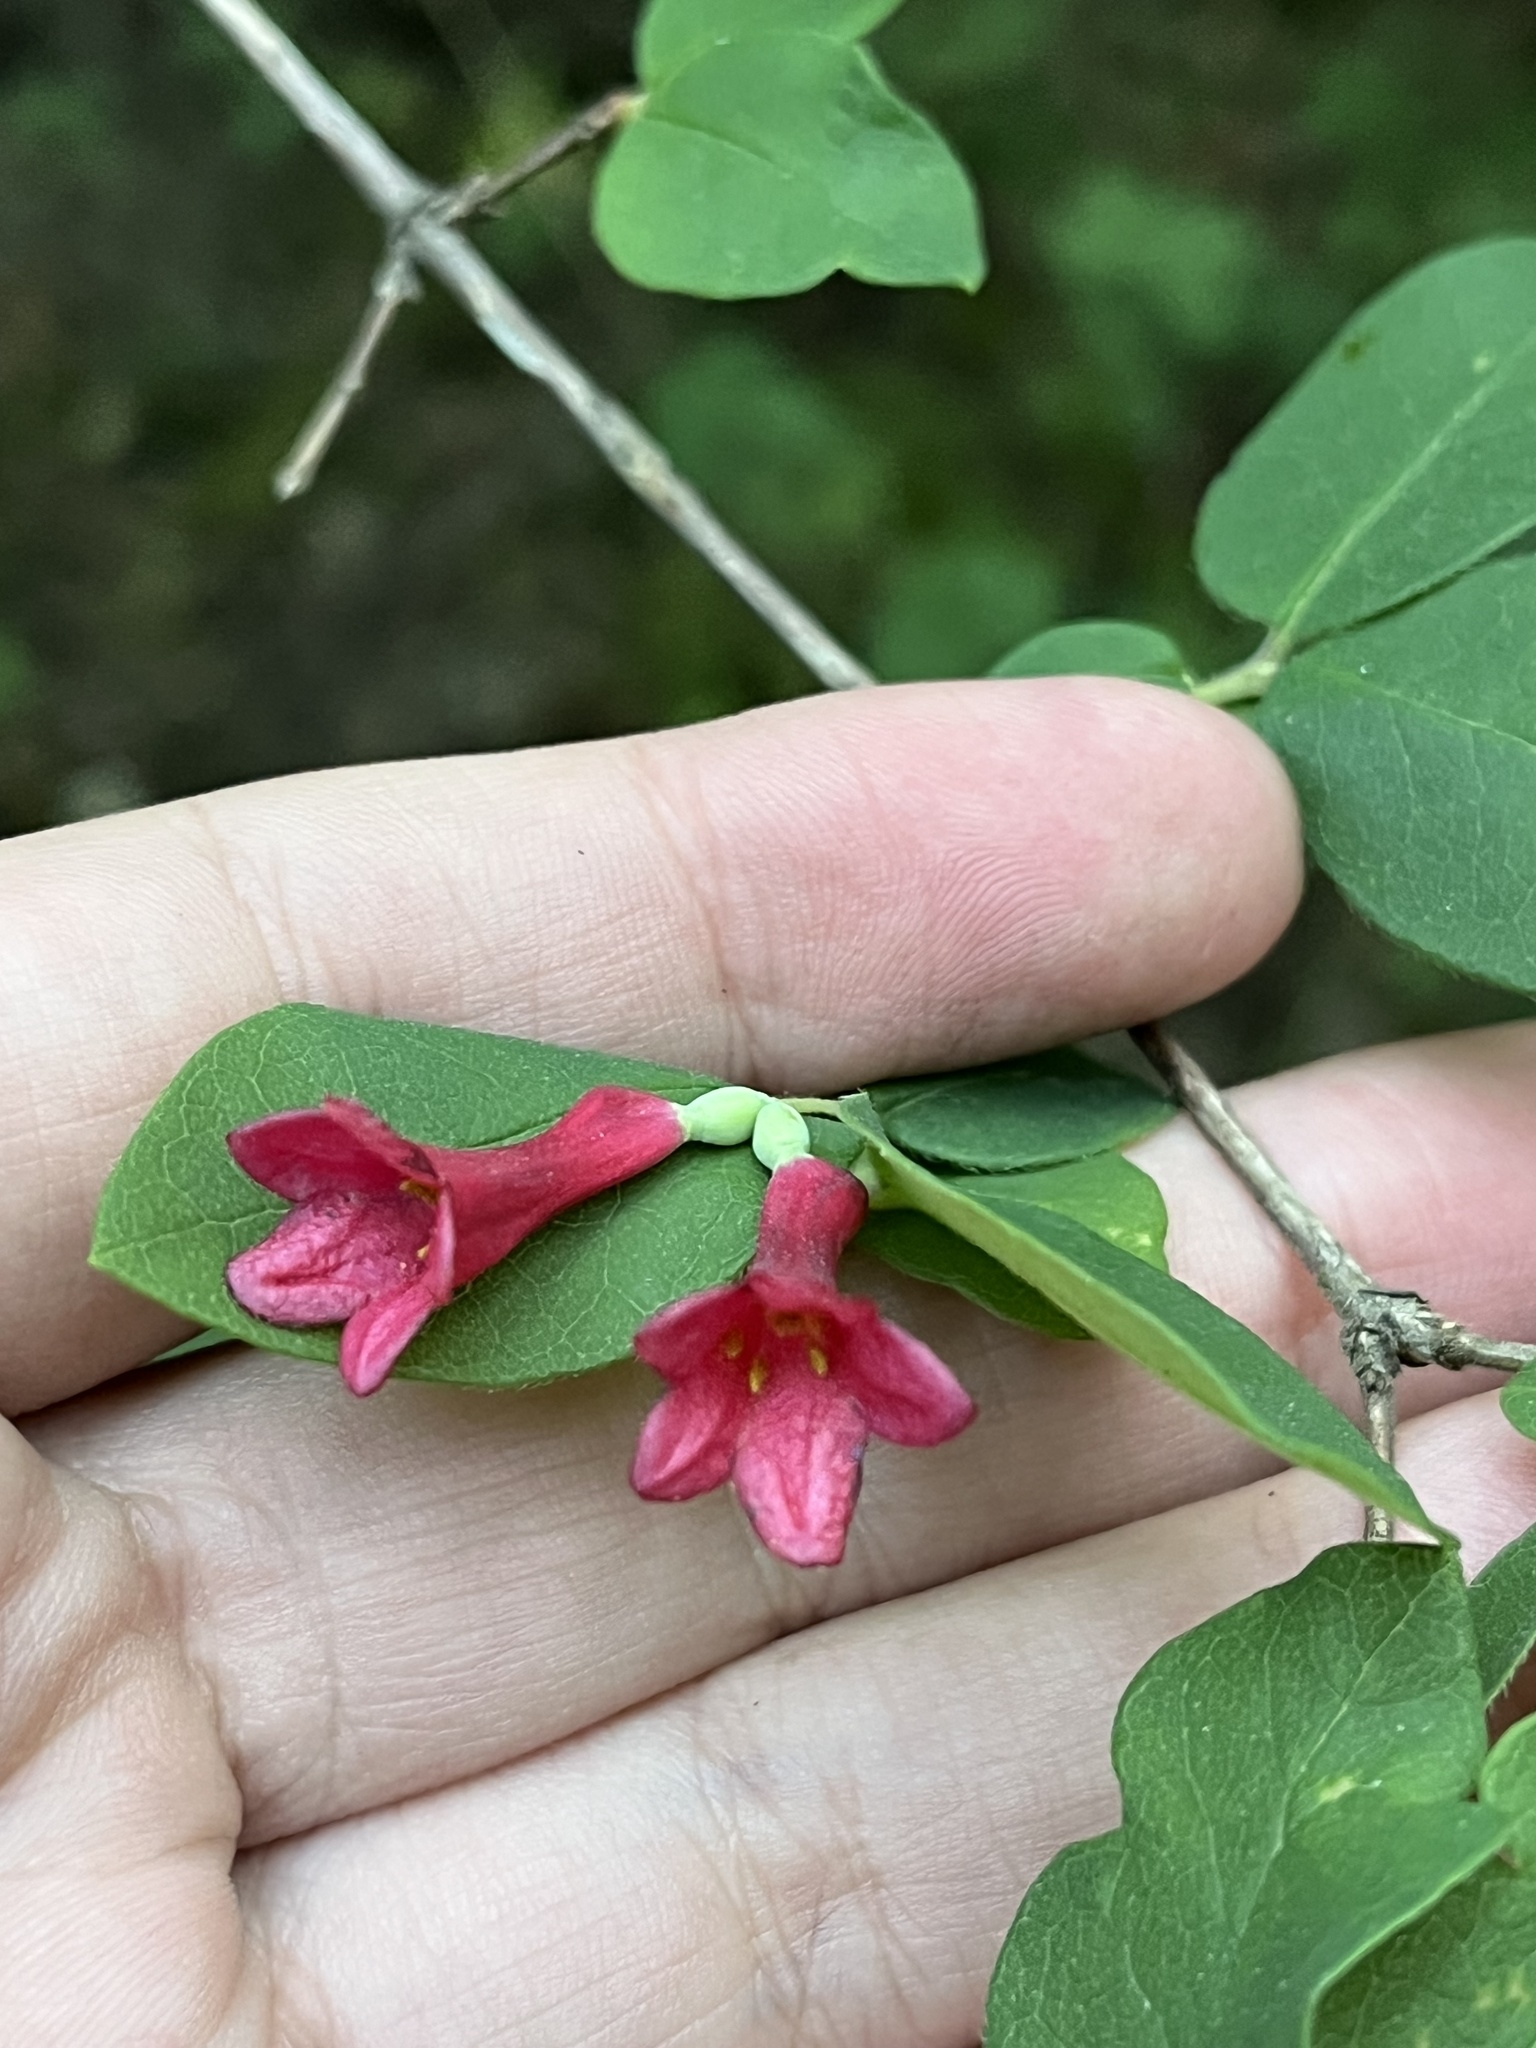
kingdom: Plantae
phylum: Tracheophyta
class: Magnoliopsida
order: Dipsacales
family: Caprifoliaceae
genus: Lonicera
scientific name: Lonicera mexicana
